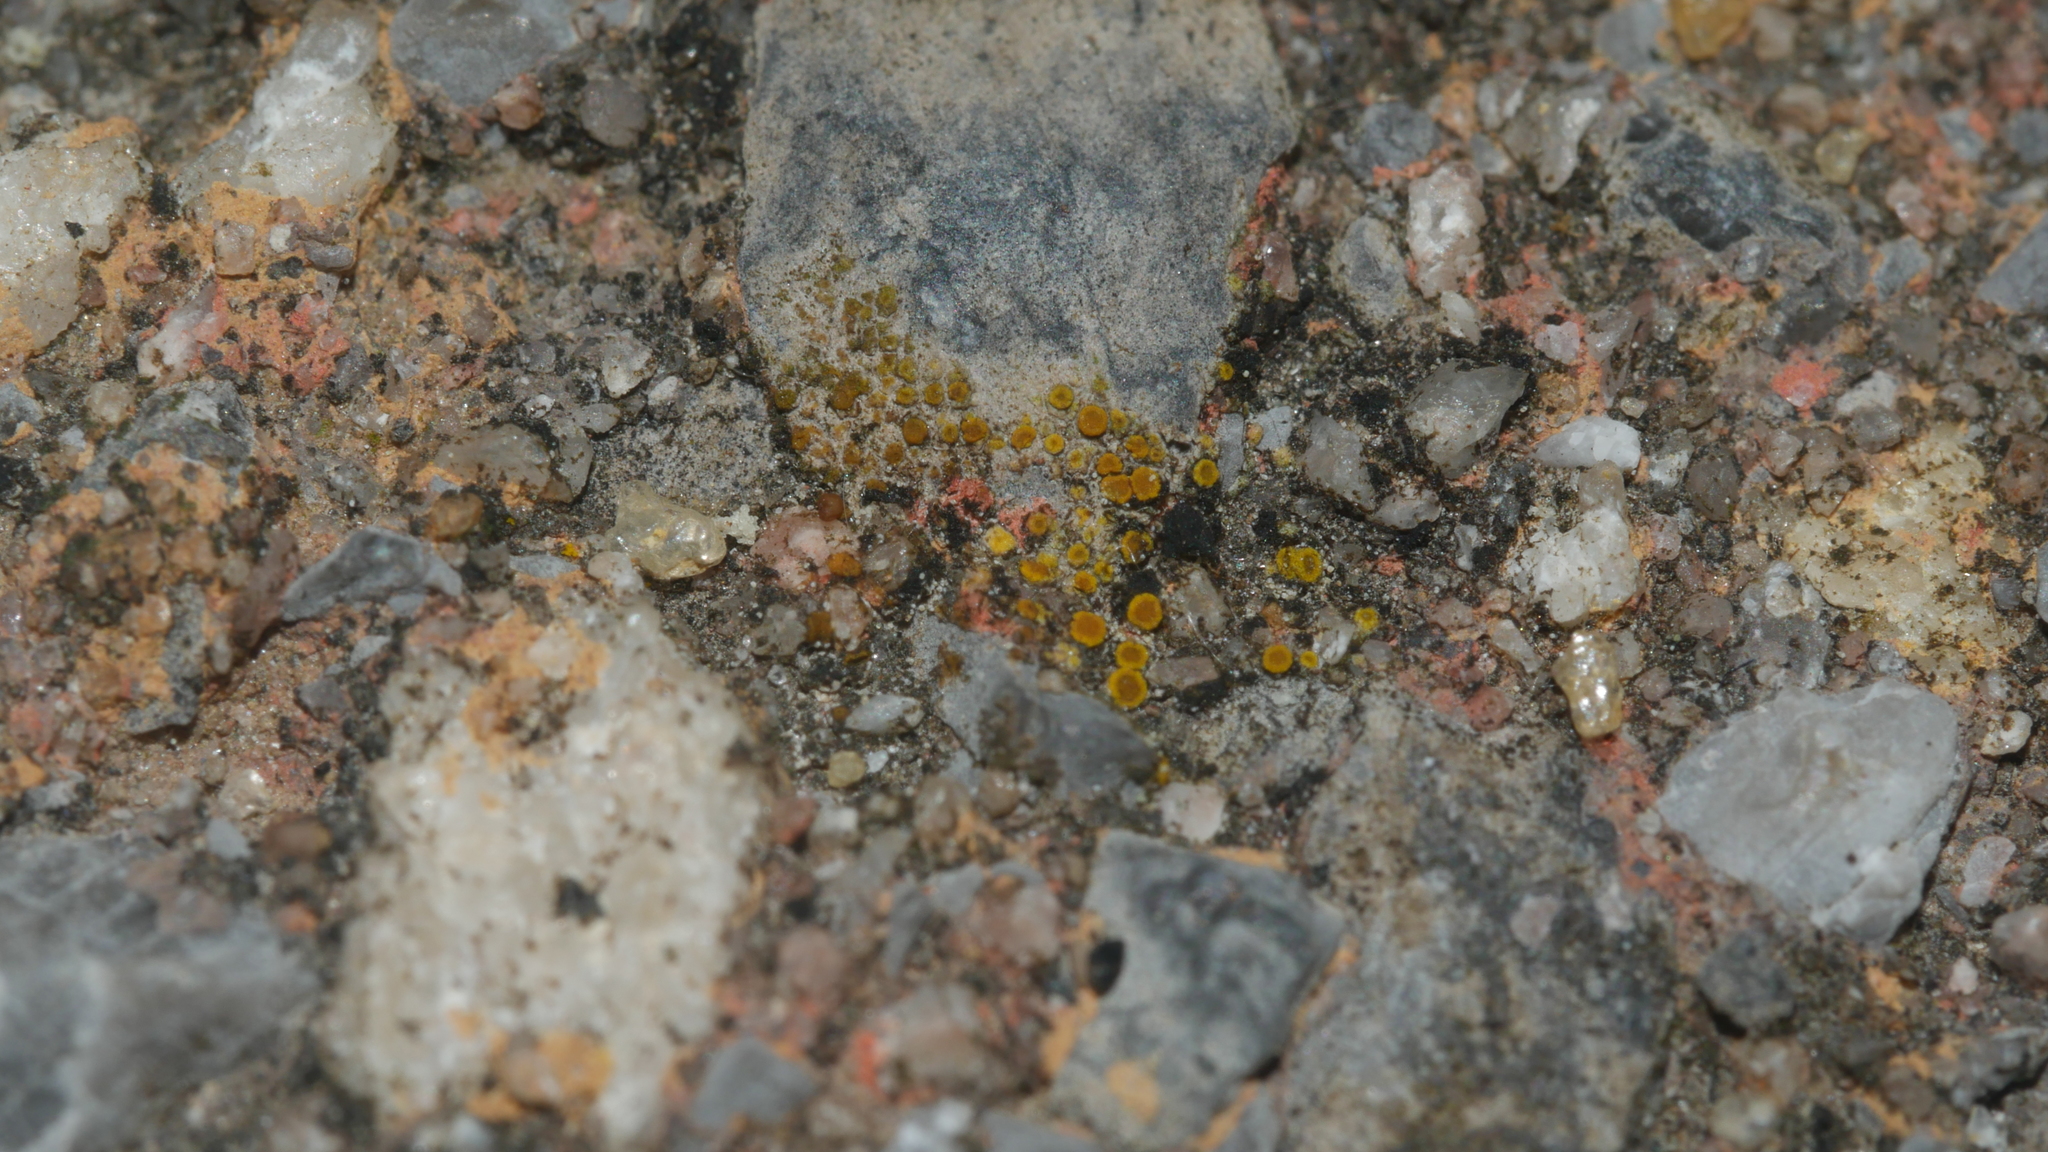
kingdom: Fungi
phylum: Ascomycota
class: Lecanoromycetes
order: Teloschistales
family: Teloschistaceae
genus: Xanthocarpia
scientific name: Xanthocarpia feracissima
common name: Sidewalk firedot
